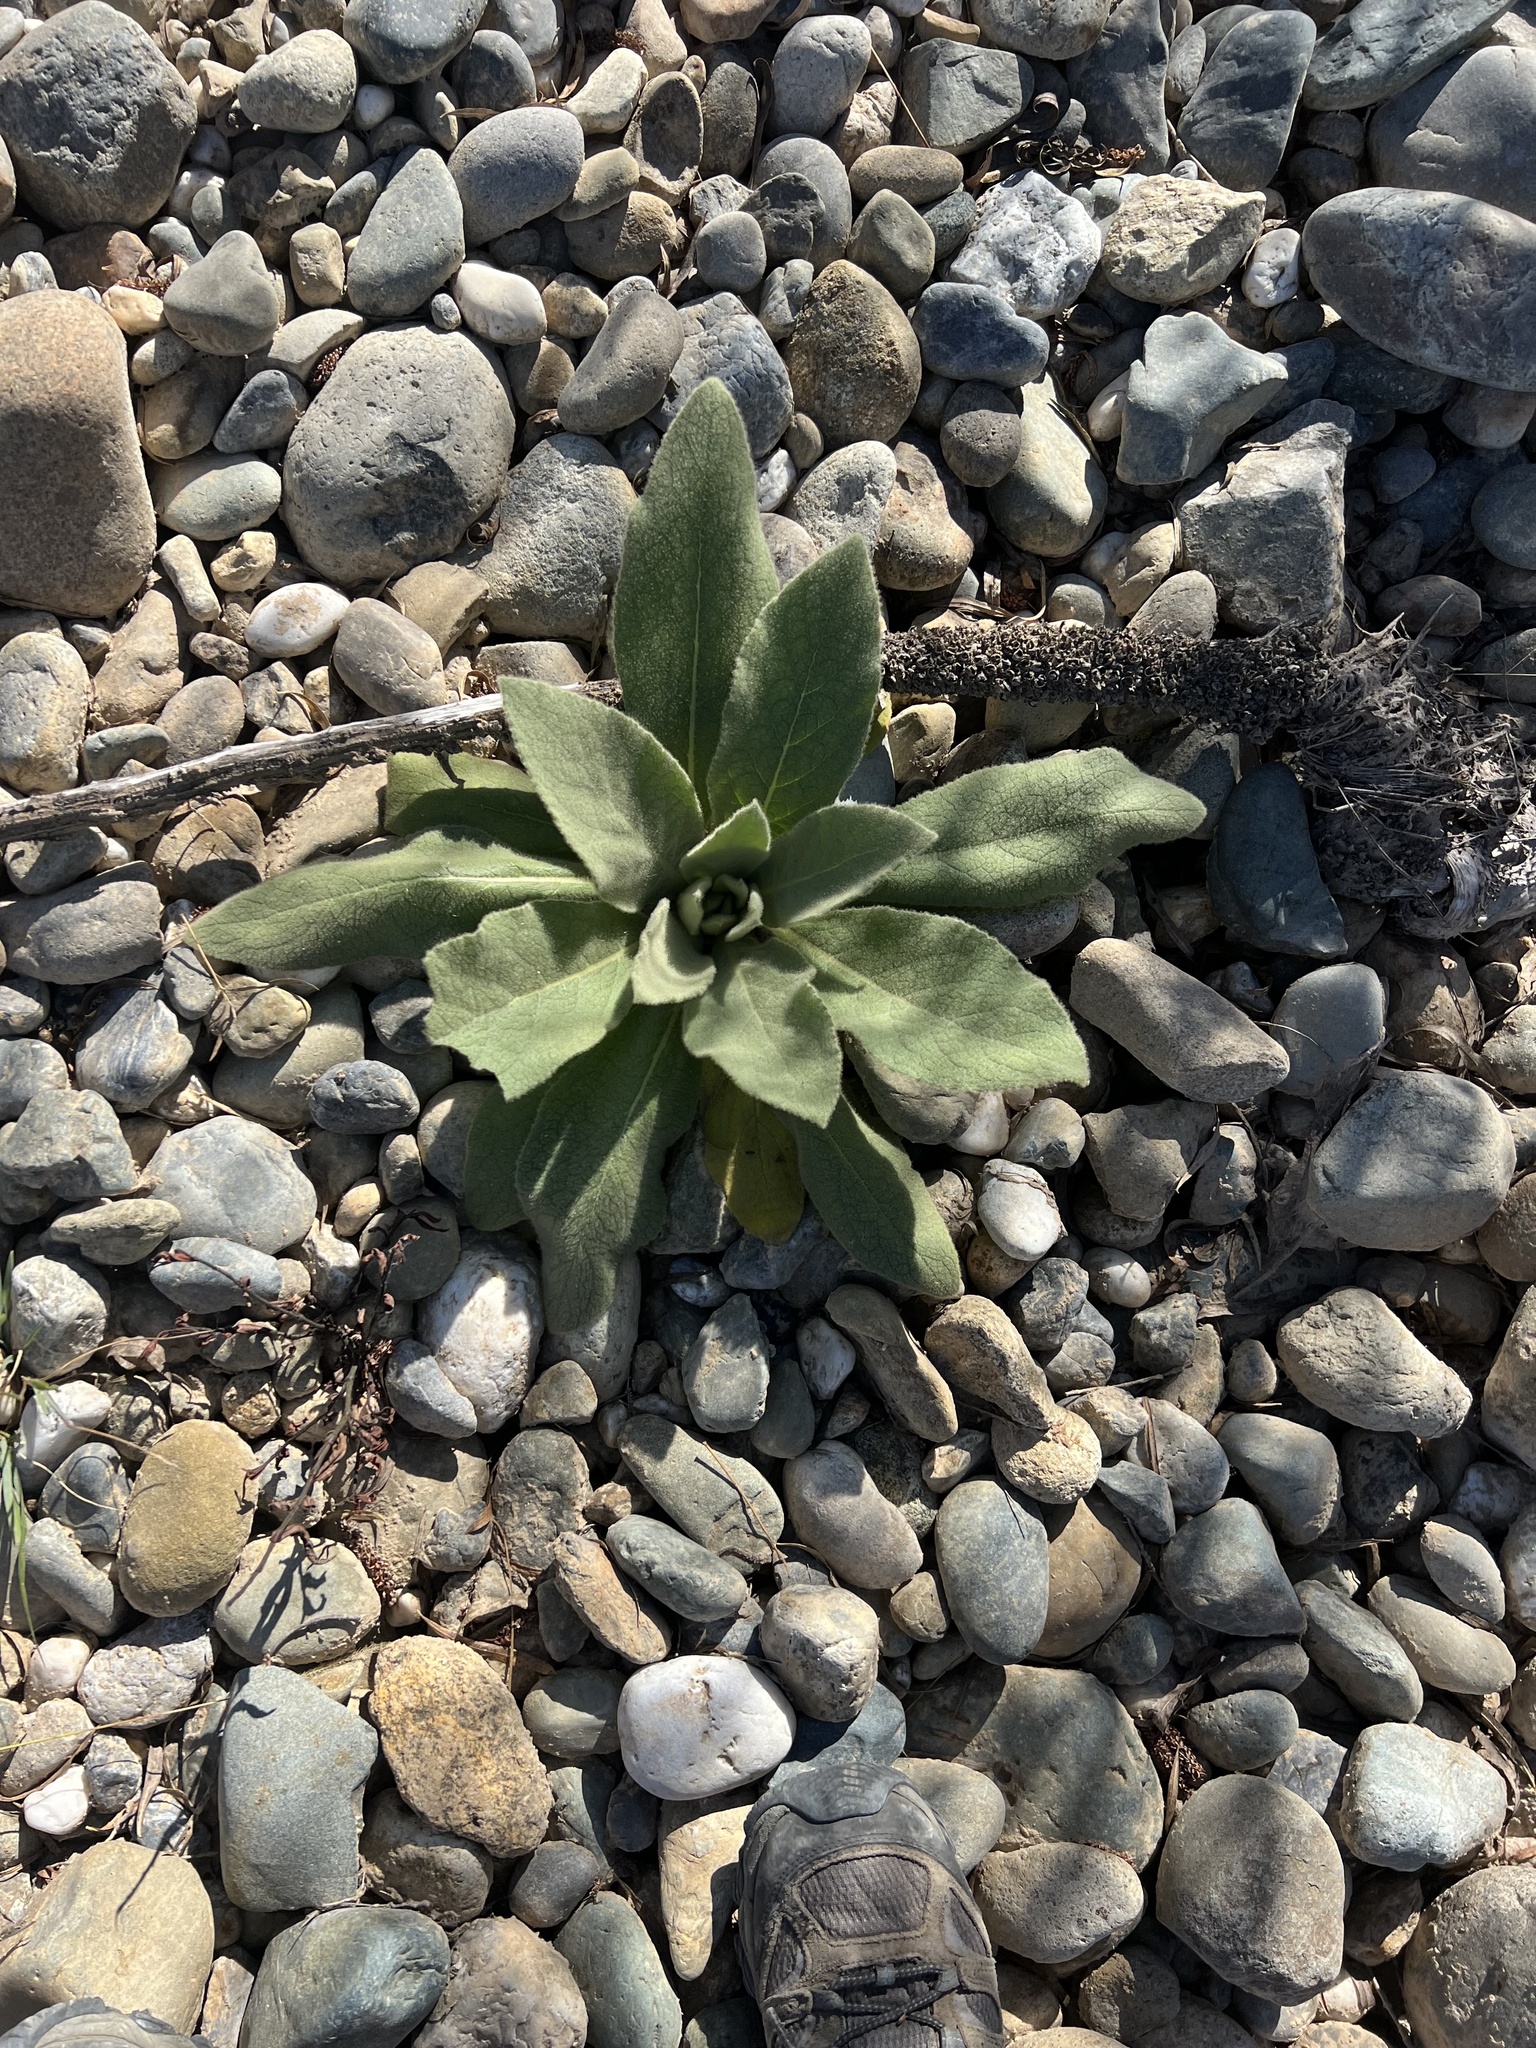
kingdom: Plantae
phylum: Tracheophyta
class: Magnoliopsida
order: Lamiales
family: Scrophulariaceae
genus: Verbascum
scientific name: Verbascum thapsus
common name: Common mullein
